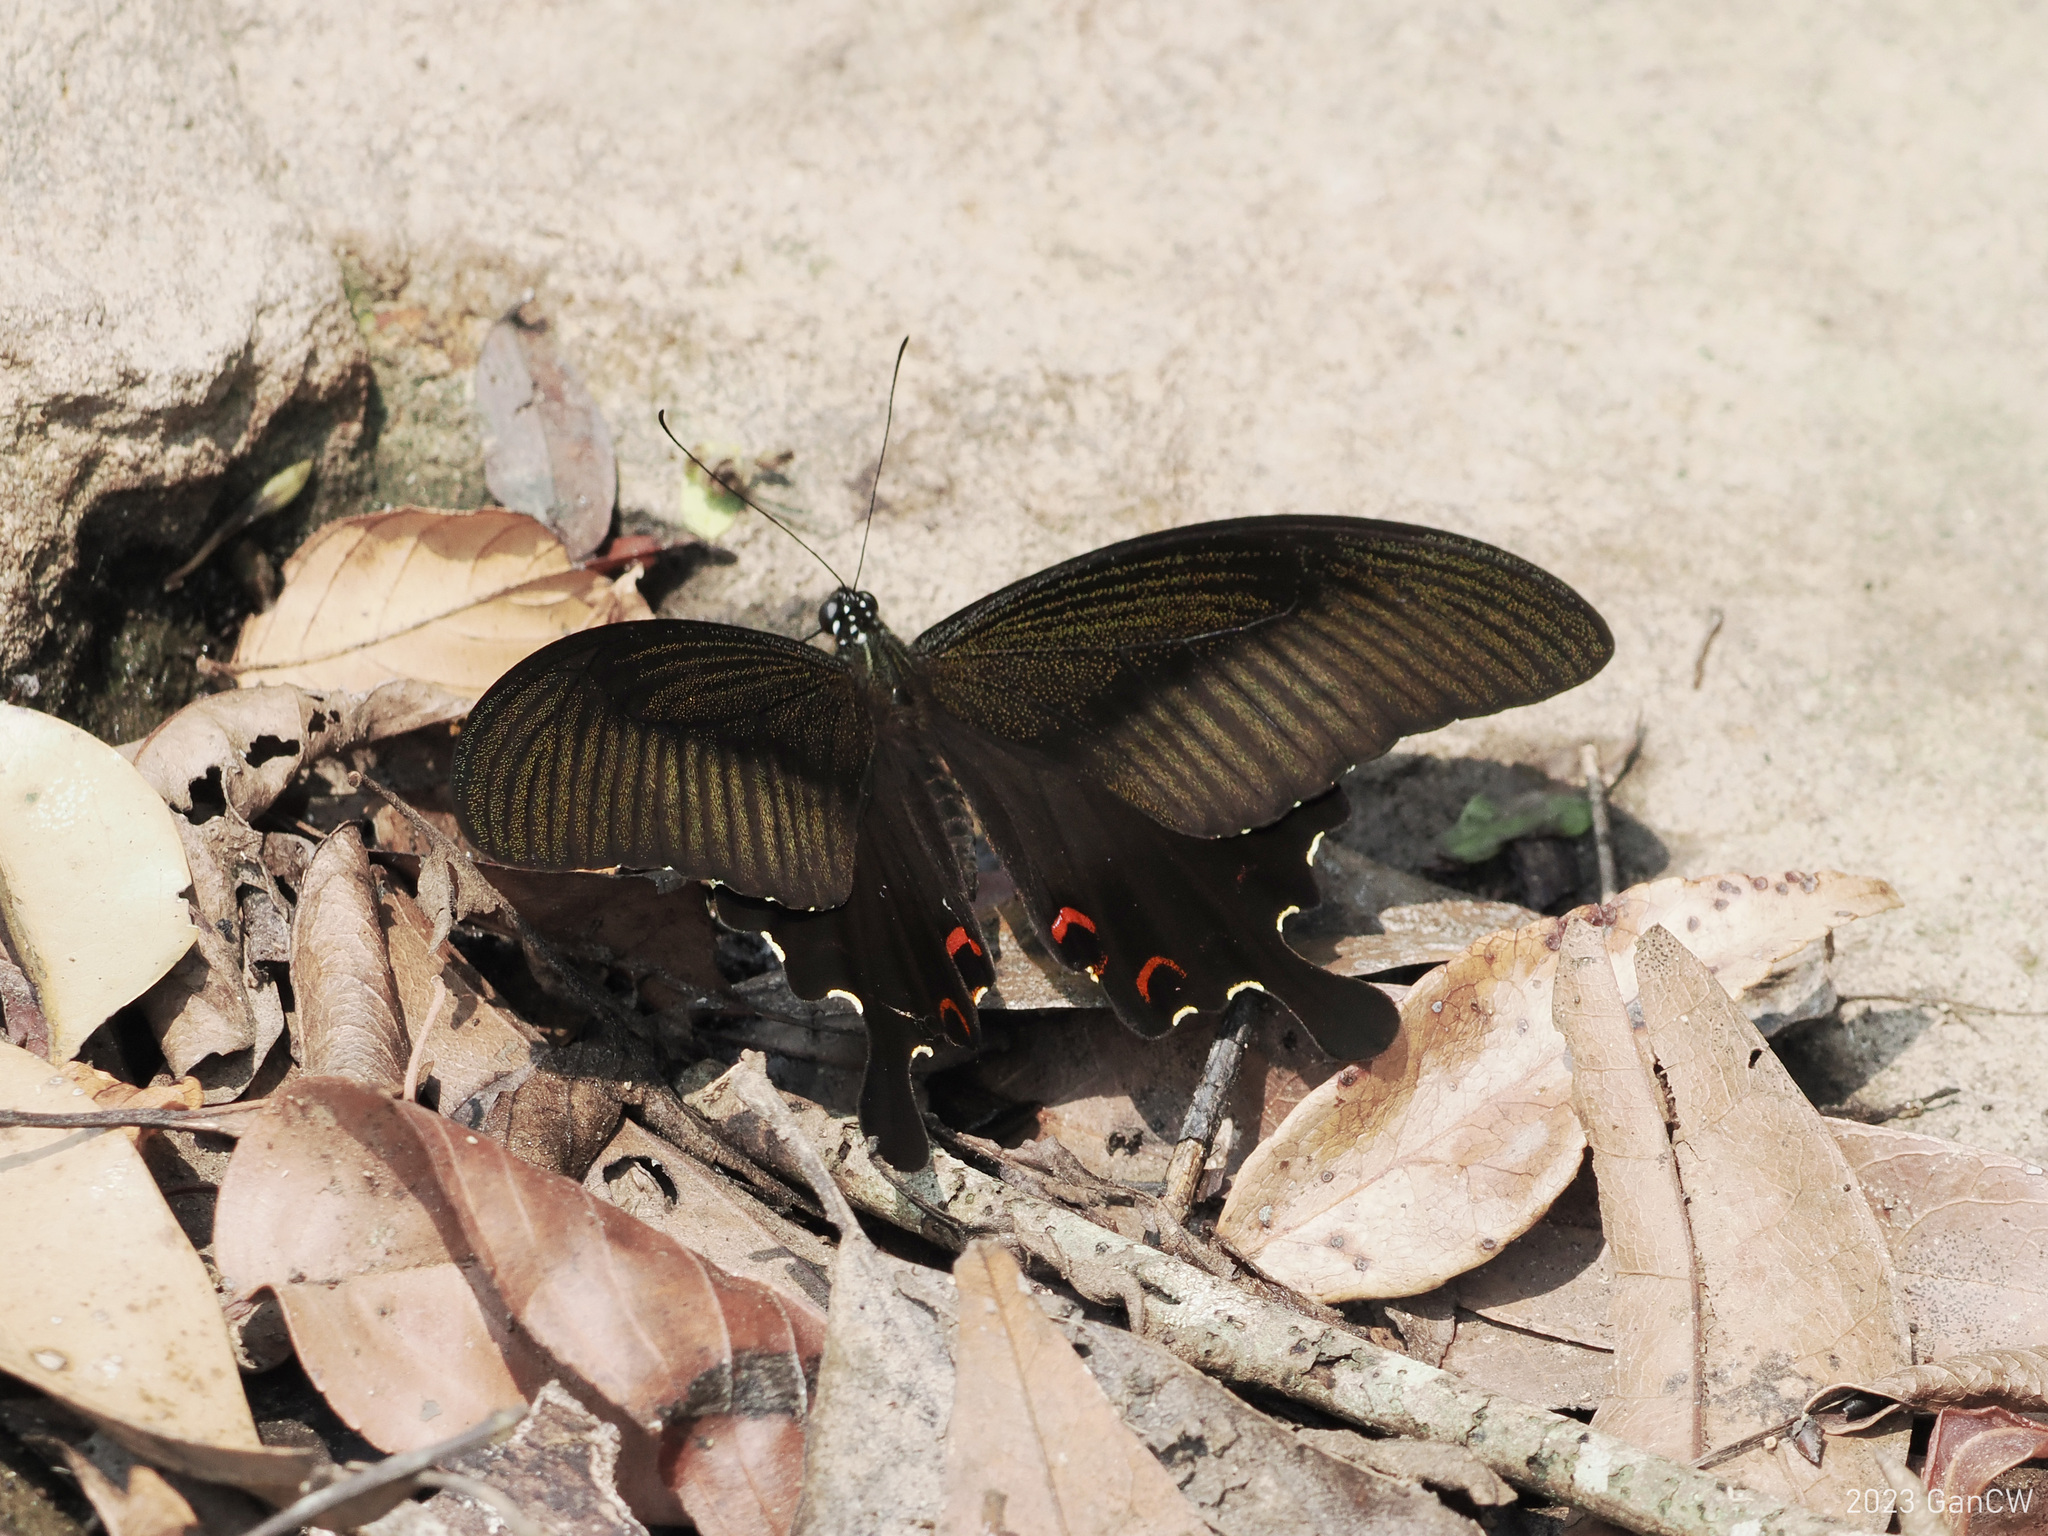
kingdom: Animalia
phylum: Arthropoda
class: Insecta
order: Lepidoptera
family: Papilionidae
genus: Papilio
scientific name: Papilio helenus
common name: Red helen
